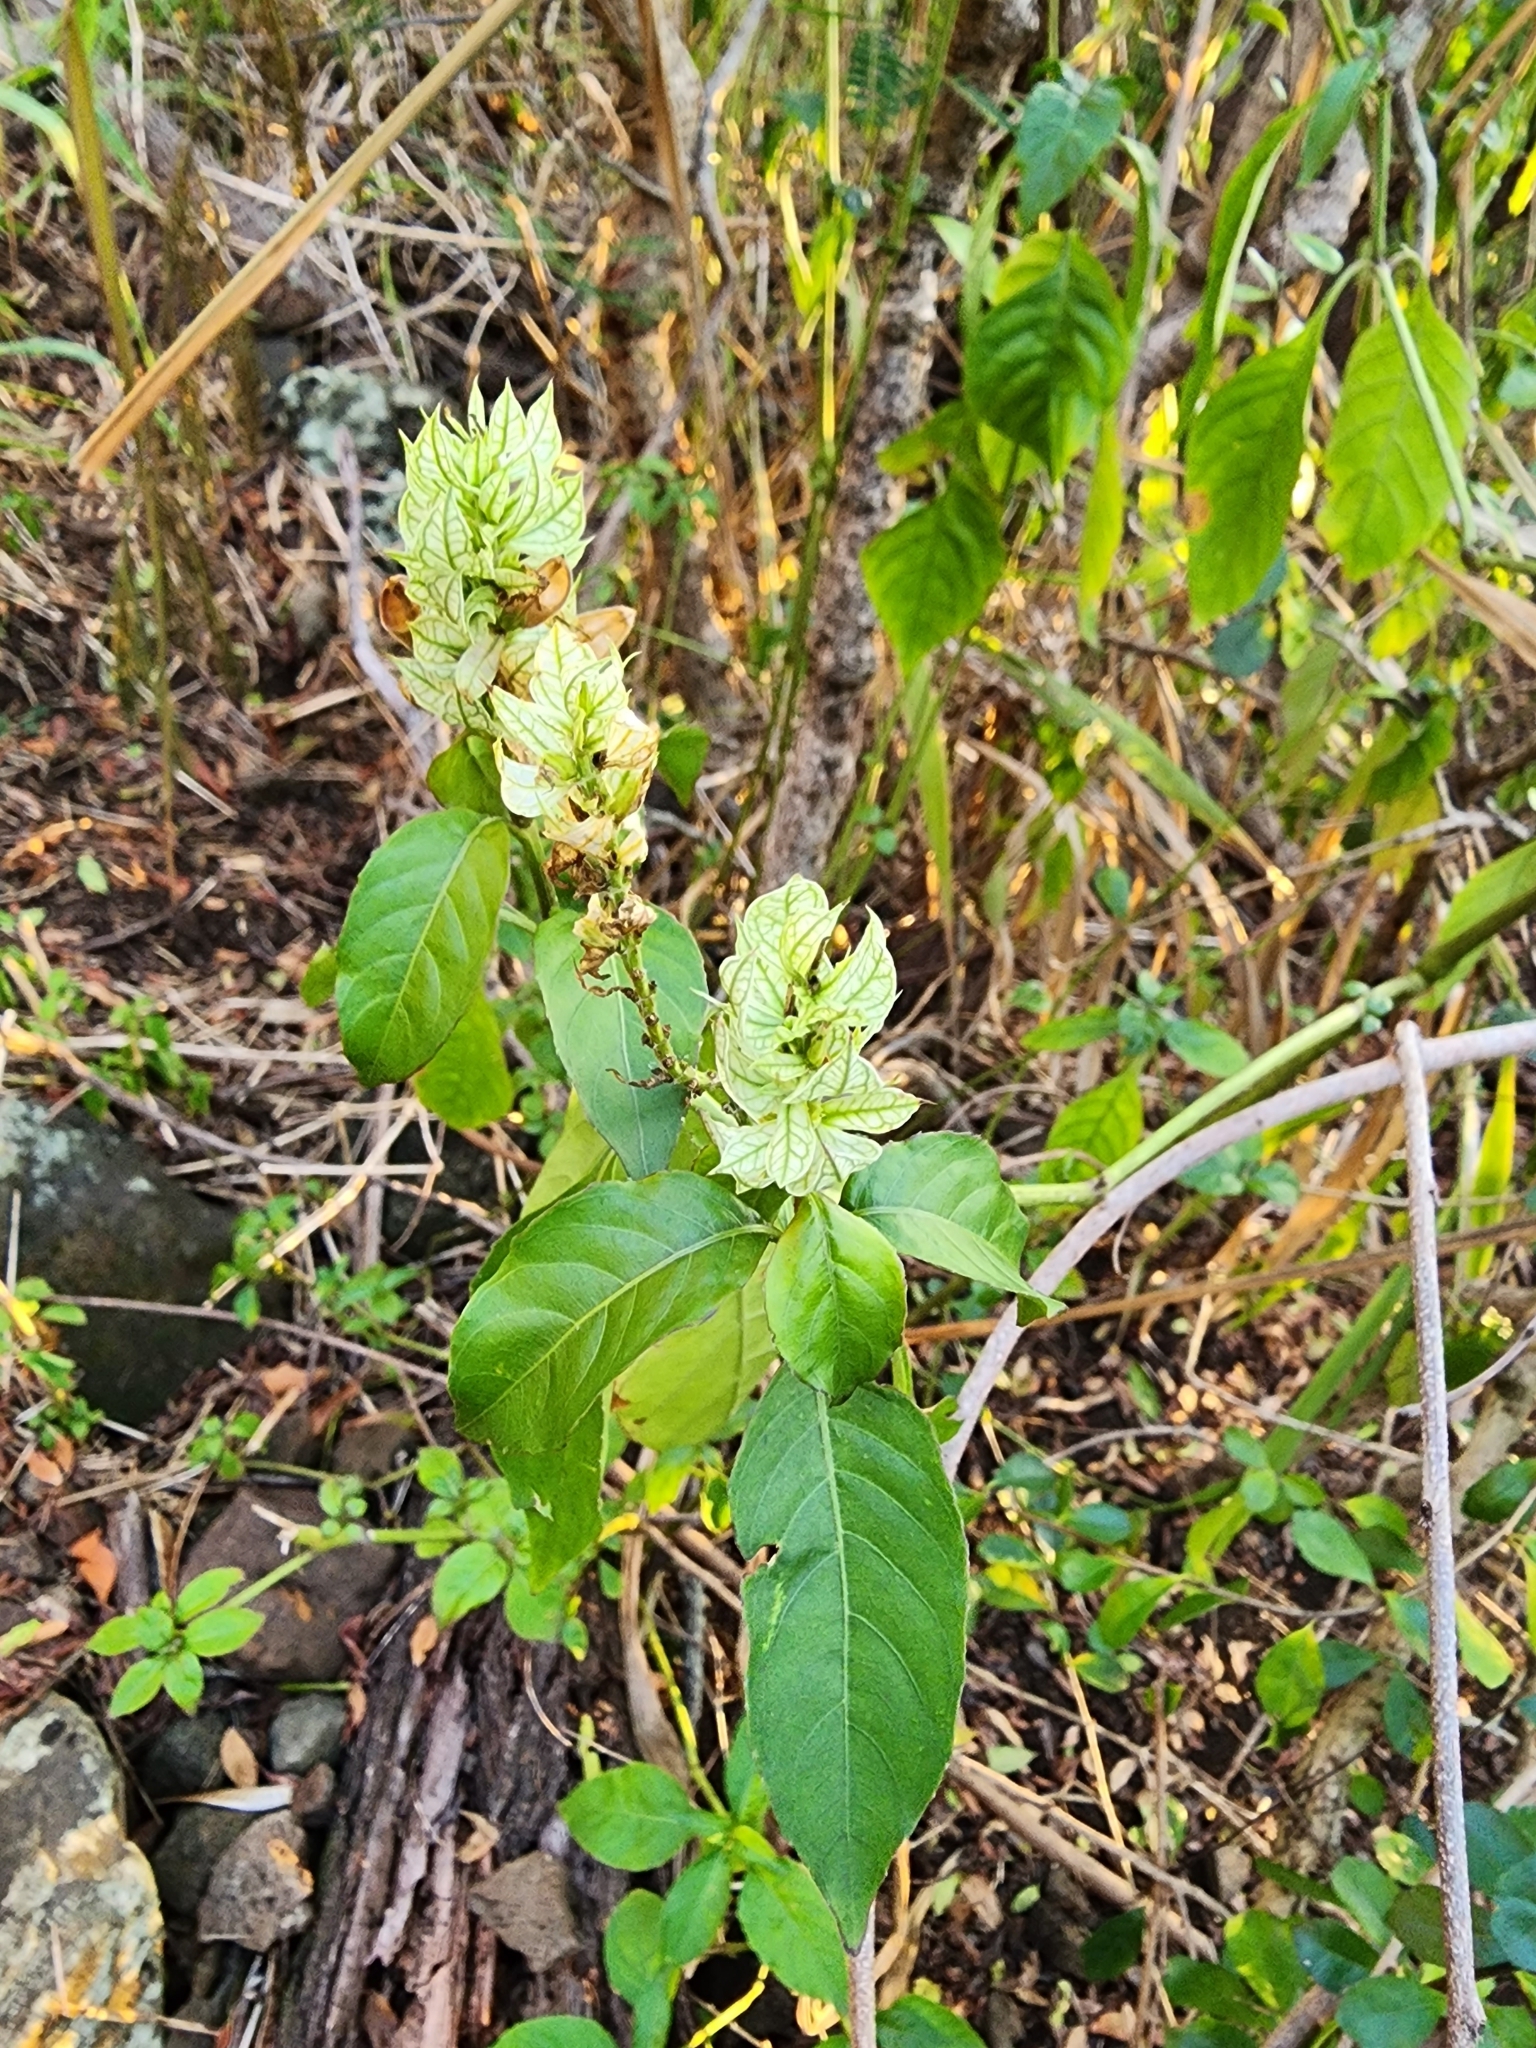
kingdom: Plantae
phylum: Tracheophyta
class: Magnoliopsida
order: Lamiales
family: Acanthaceae
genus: Justicia
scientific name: Justicia betonica
